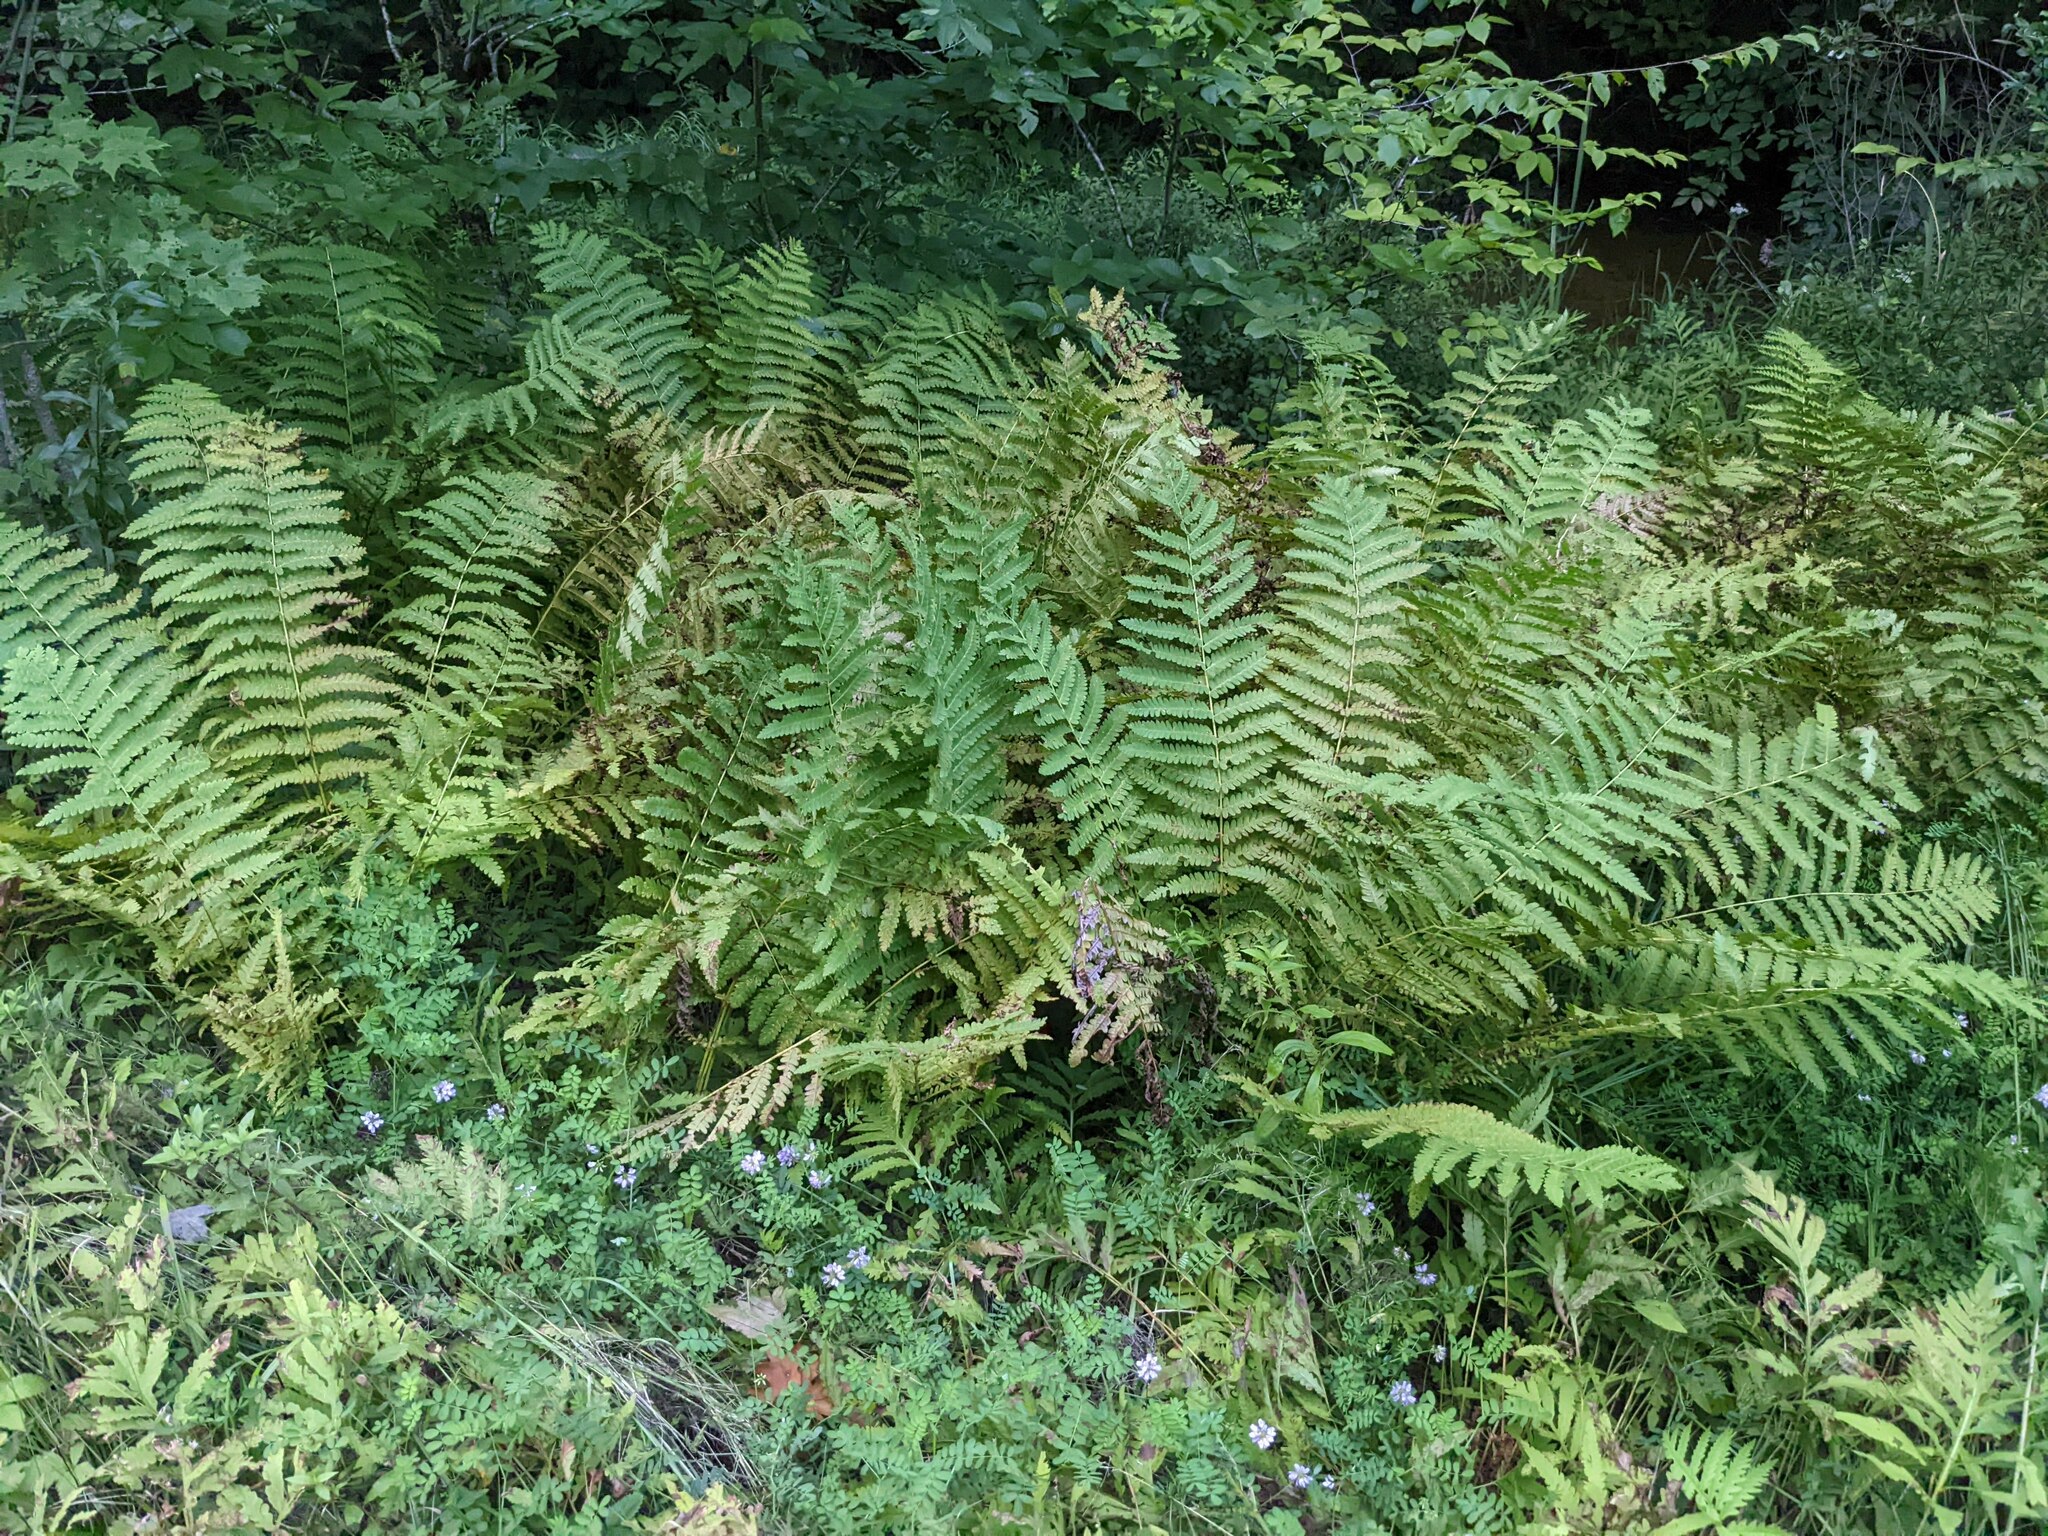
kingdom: Plantae
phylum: Tracheophyta
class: Polypodiopsida
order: Osmundales
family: Osmundaceae
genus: Claytosmunda
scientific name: Claytosmunda claytoniana
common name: Clayton's fern
